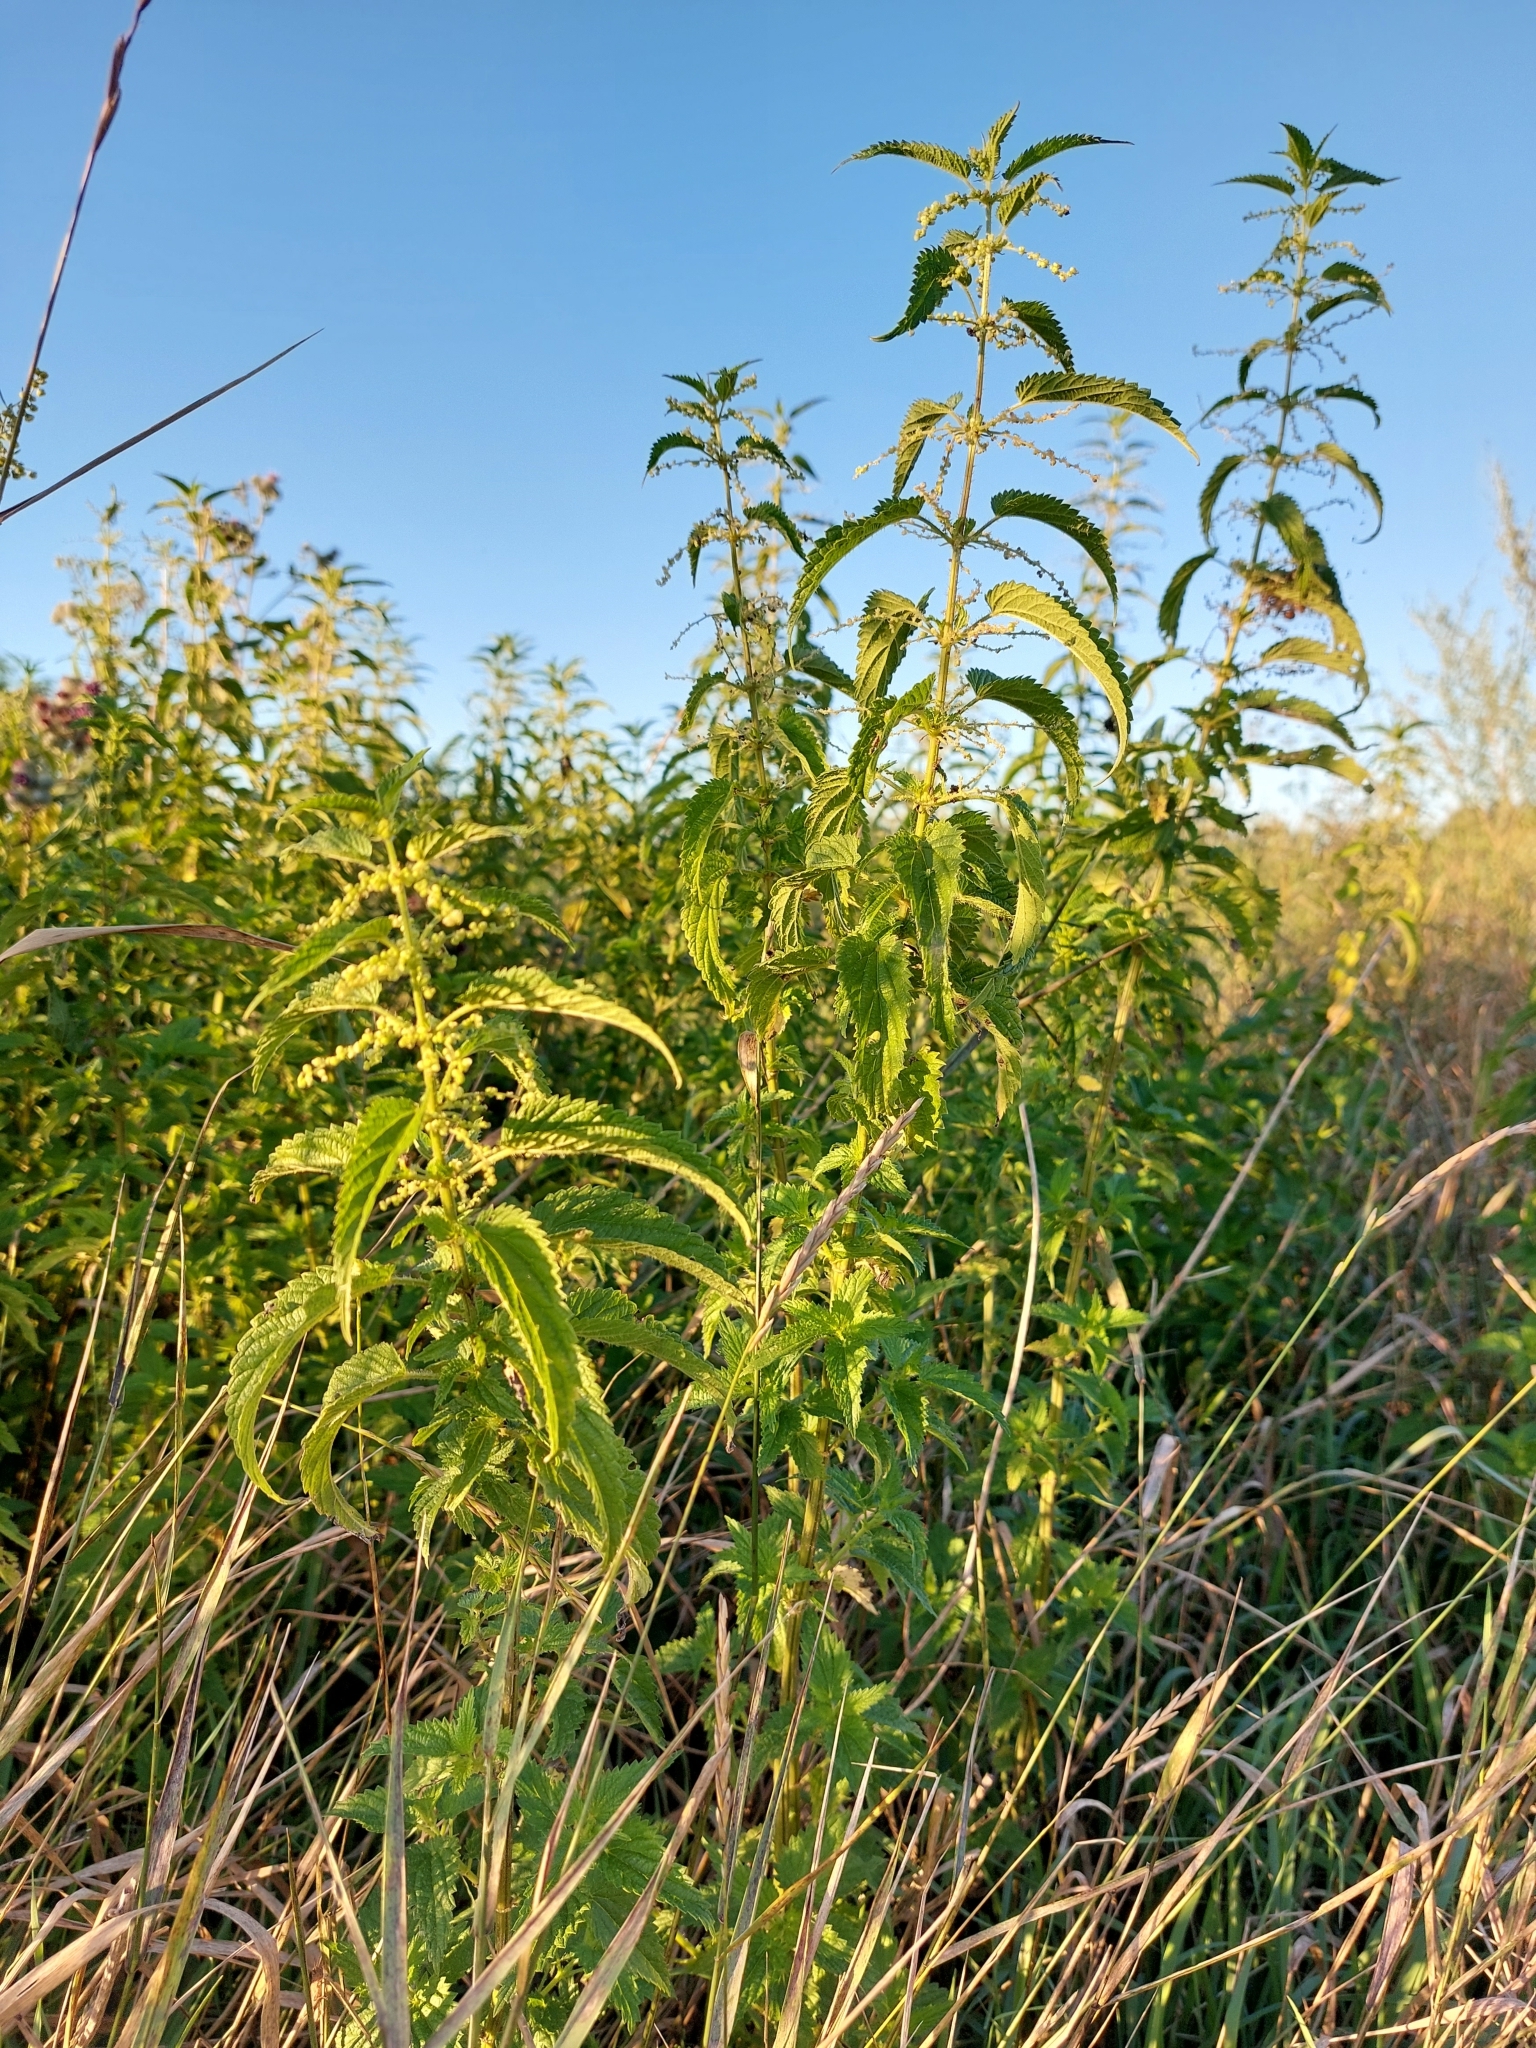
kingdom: Plantae
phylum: Tracheophyta
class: Magnoliopsida
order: Rosales
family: Urticaceae
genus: Urtica
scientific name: Urtica dioica
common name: Common nettle
